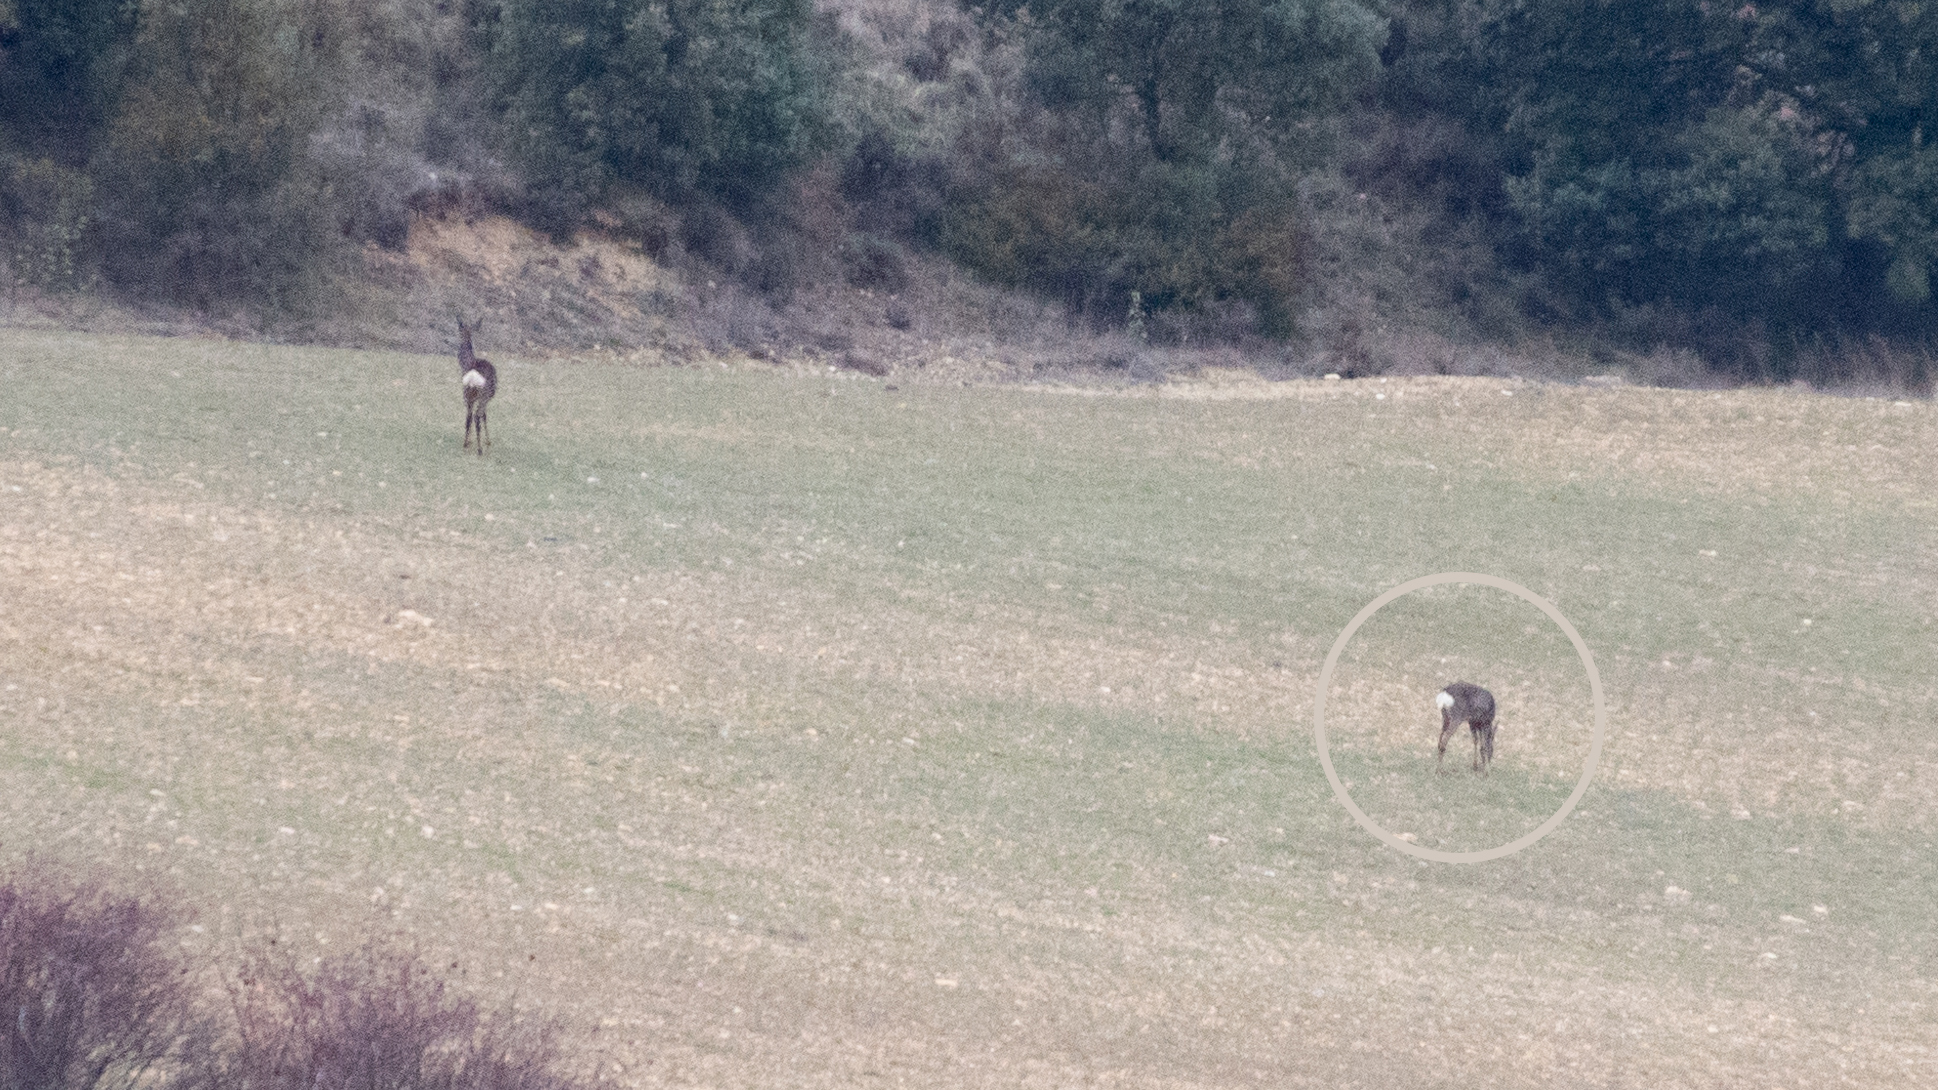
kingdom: Animalia
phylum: Chordata
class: Mammalia
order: Artiodactyla
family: Cervidae
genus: Capreolus
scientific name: Capreolus capreolus
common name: Western roe deer
